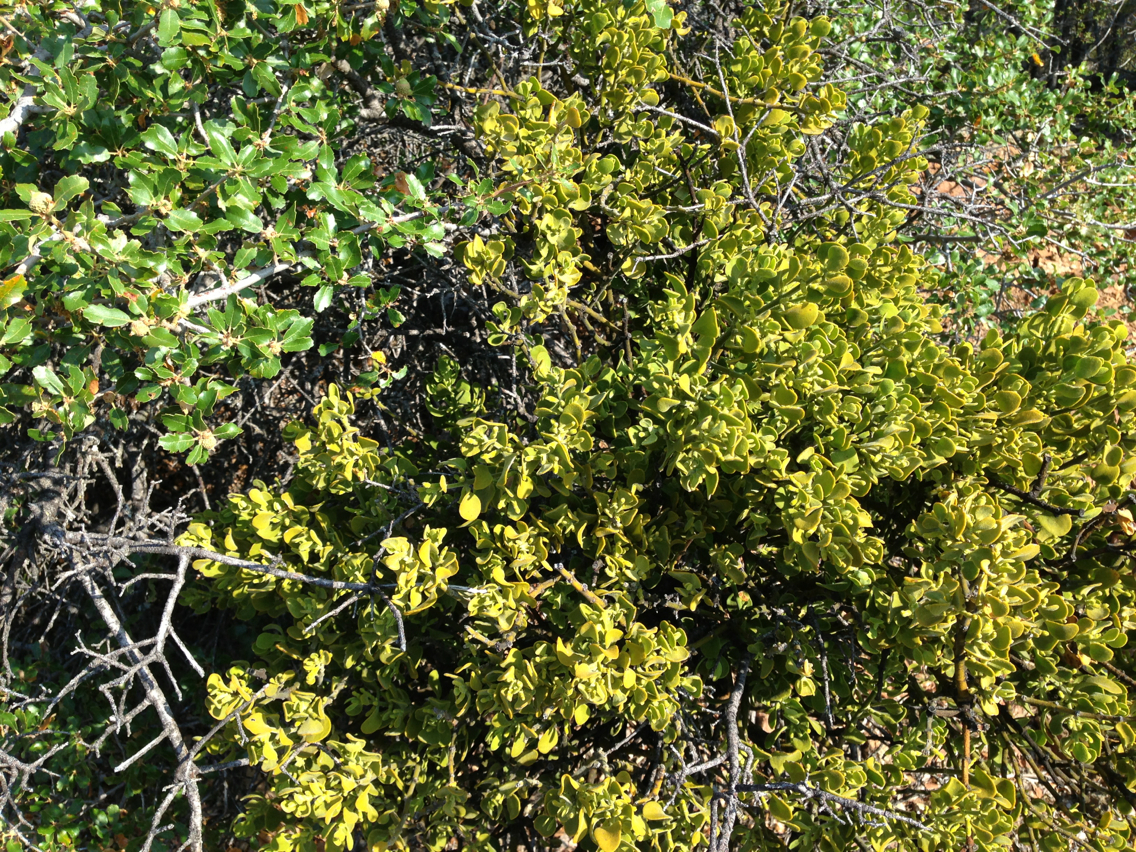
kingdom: Plantae
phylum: Tracheophyta
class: Magnoliopsida
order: Santalales
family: Viscaceae
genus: Phoradendron
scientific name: Phoradendron leucarpum
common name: Pacific mistletoe
